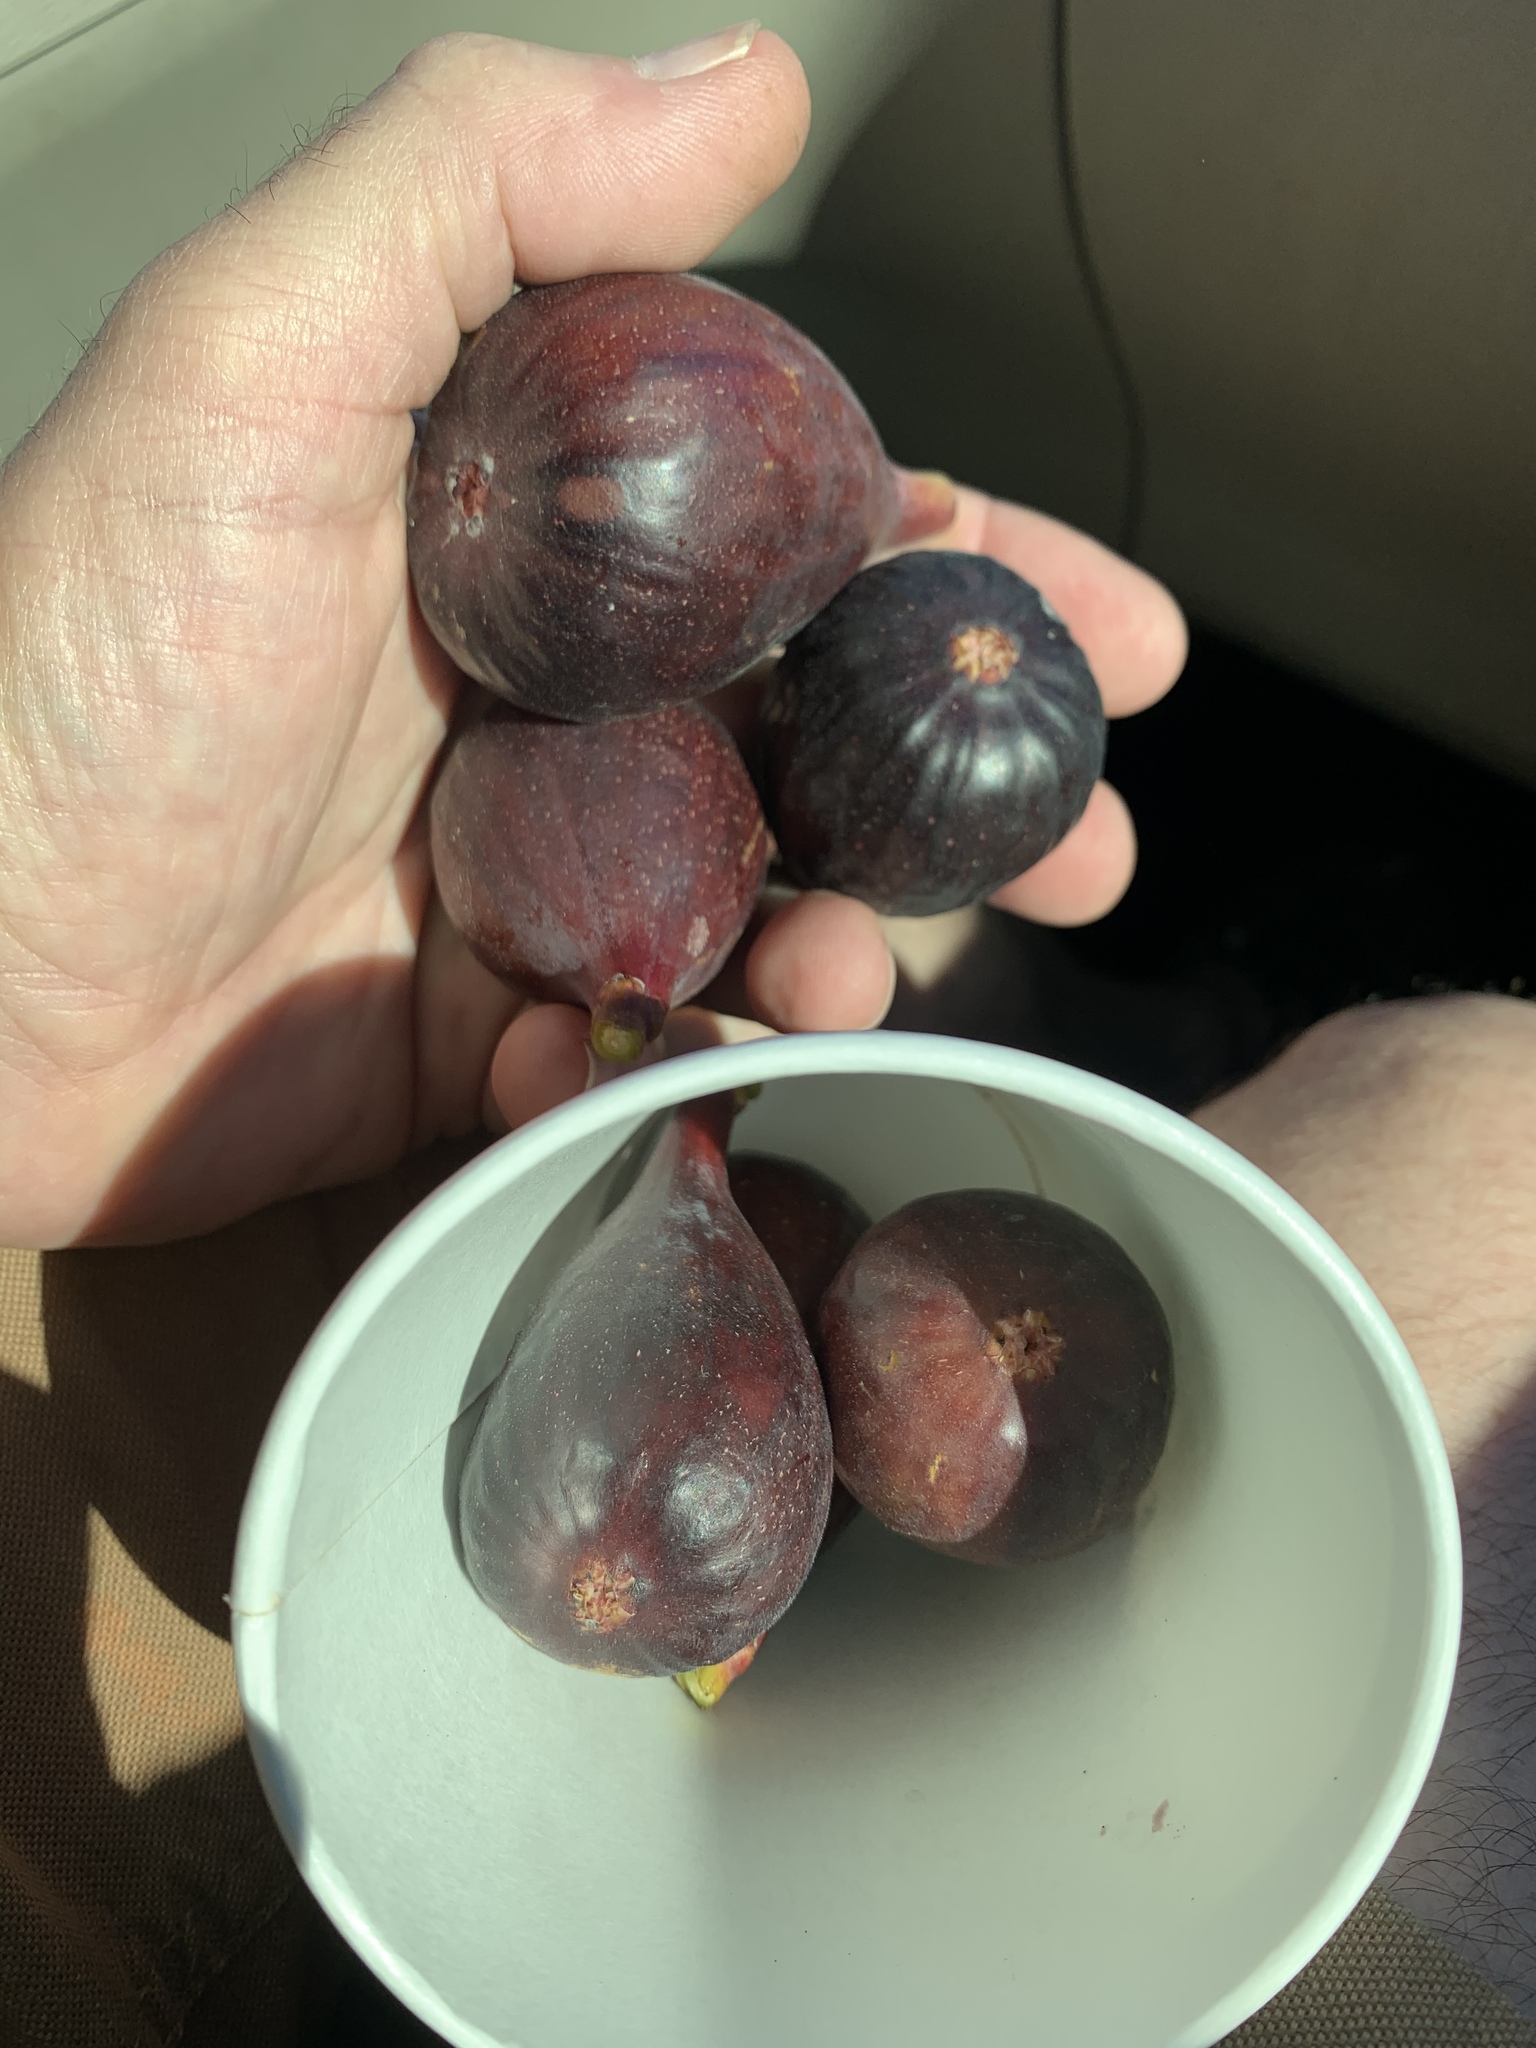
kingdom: Plantae
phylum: Tracheophyta
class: Magnoliopsida
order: Rosales
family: Moraceae
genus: Ficus
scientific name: Ficus carica
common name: Fig
